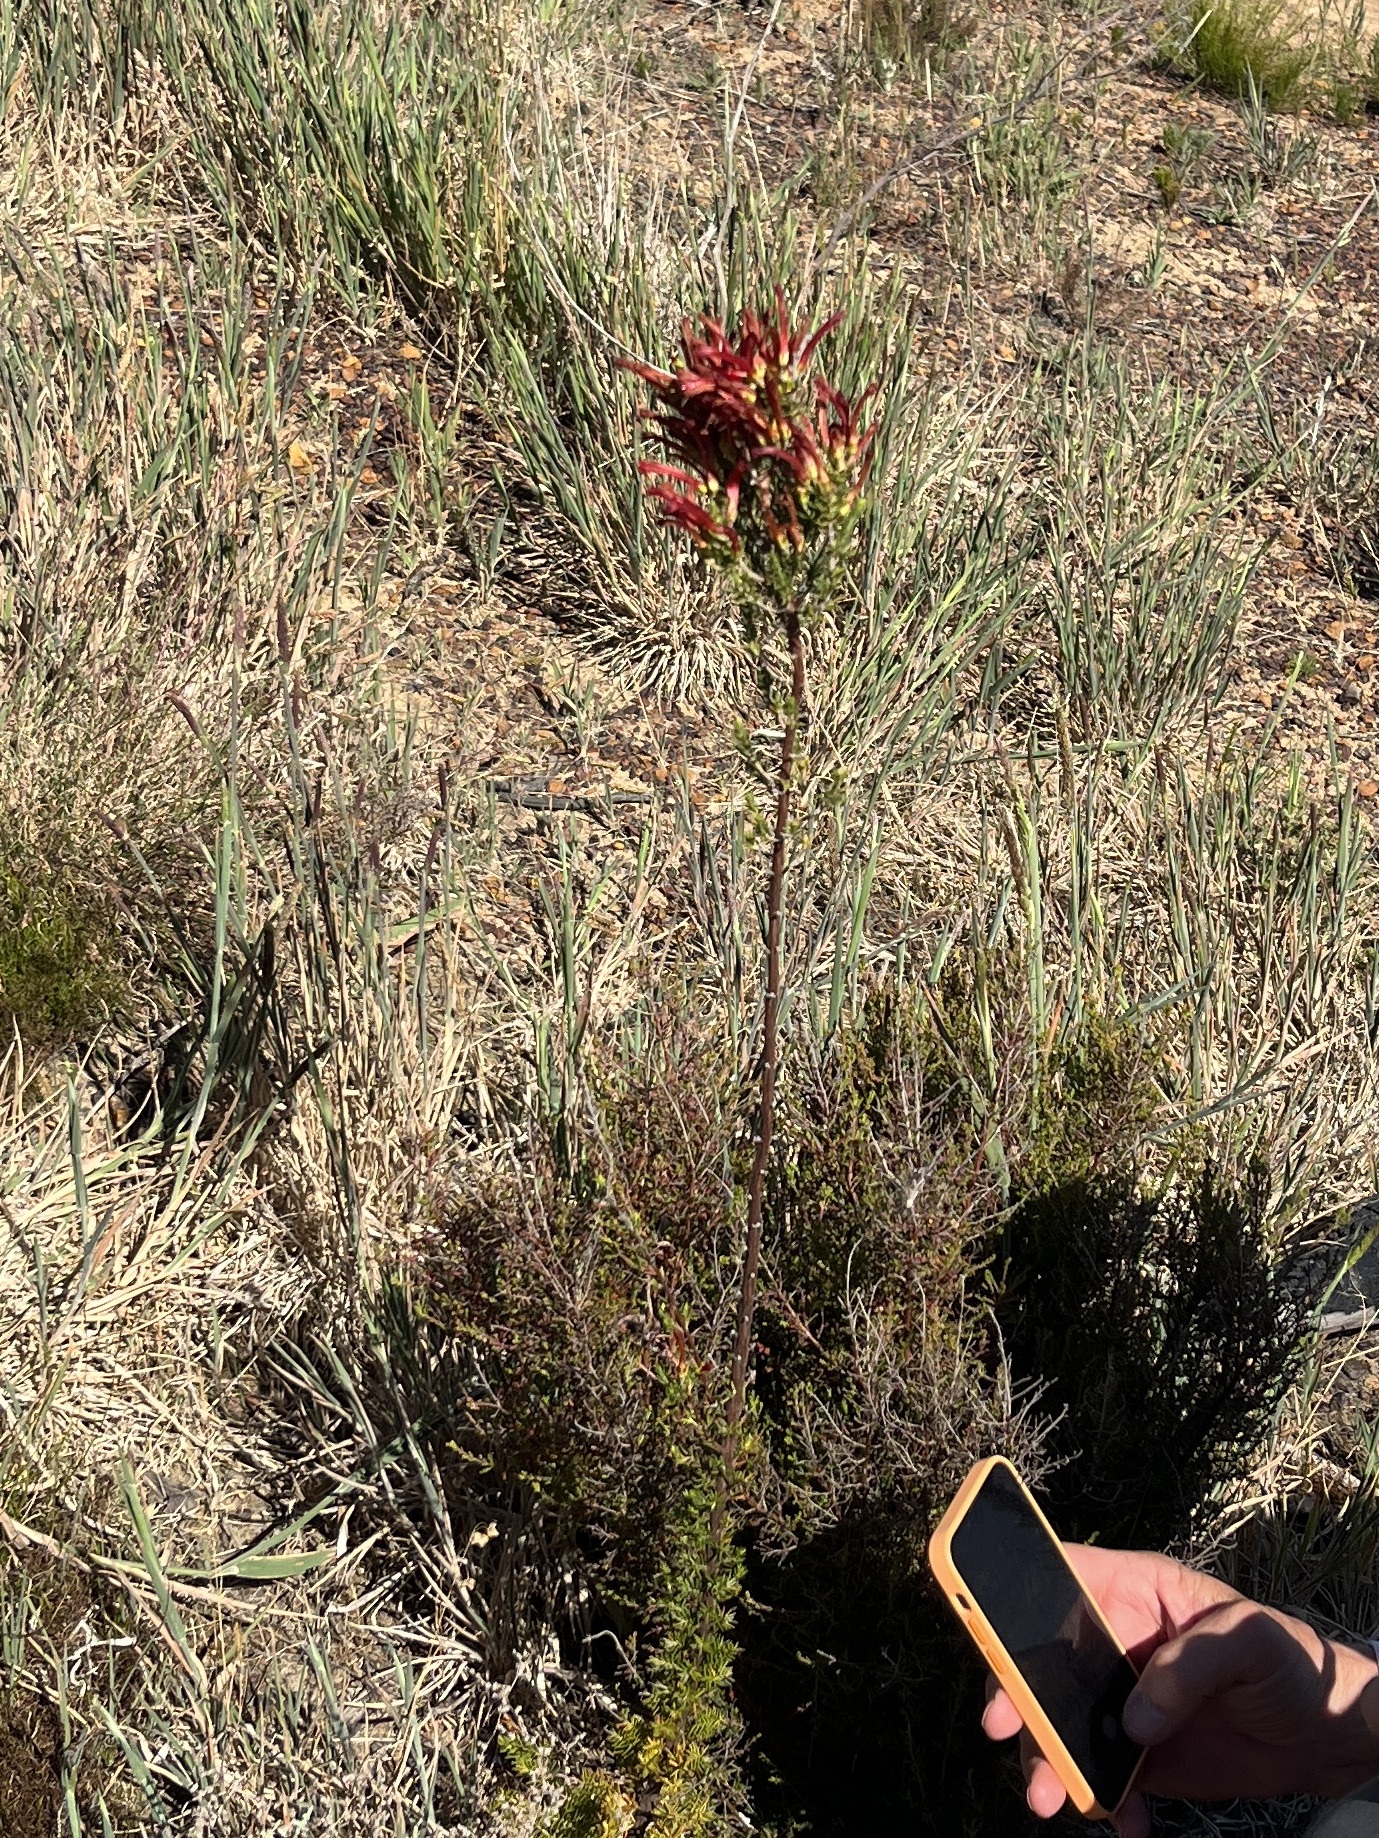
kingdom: Plantae
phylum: Tracheophyta
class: Magnoliopsida
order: Ericales
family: Ericaceae
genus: Erica
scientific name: Erica cruenta
